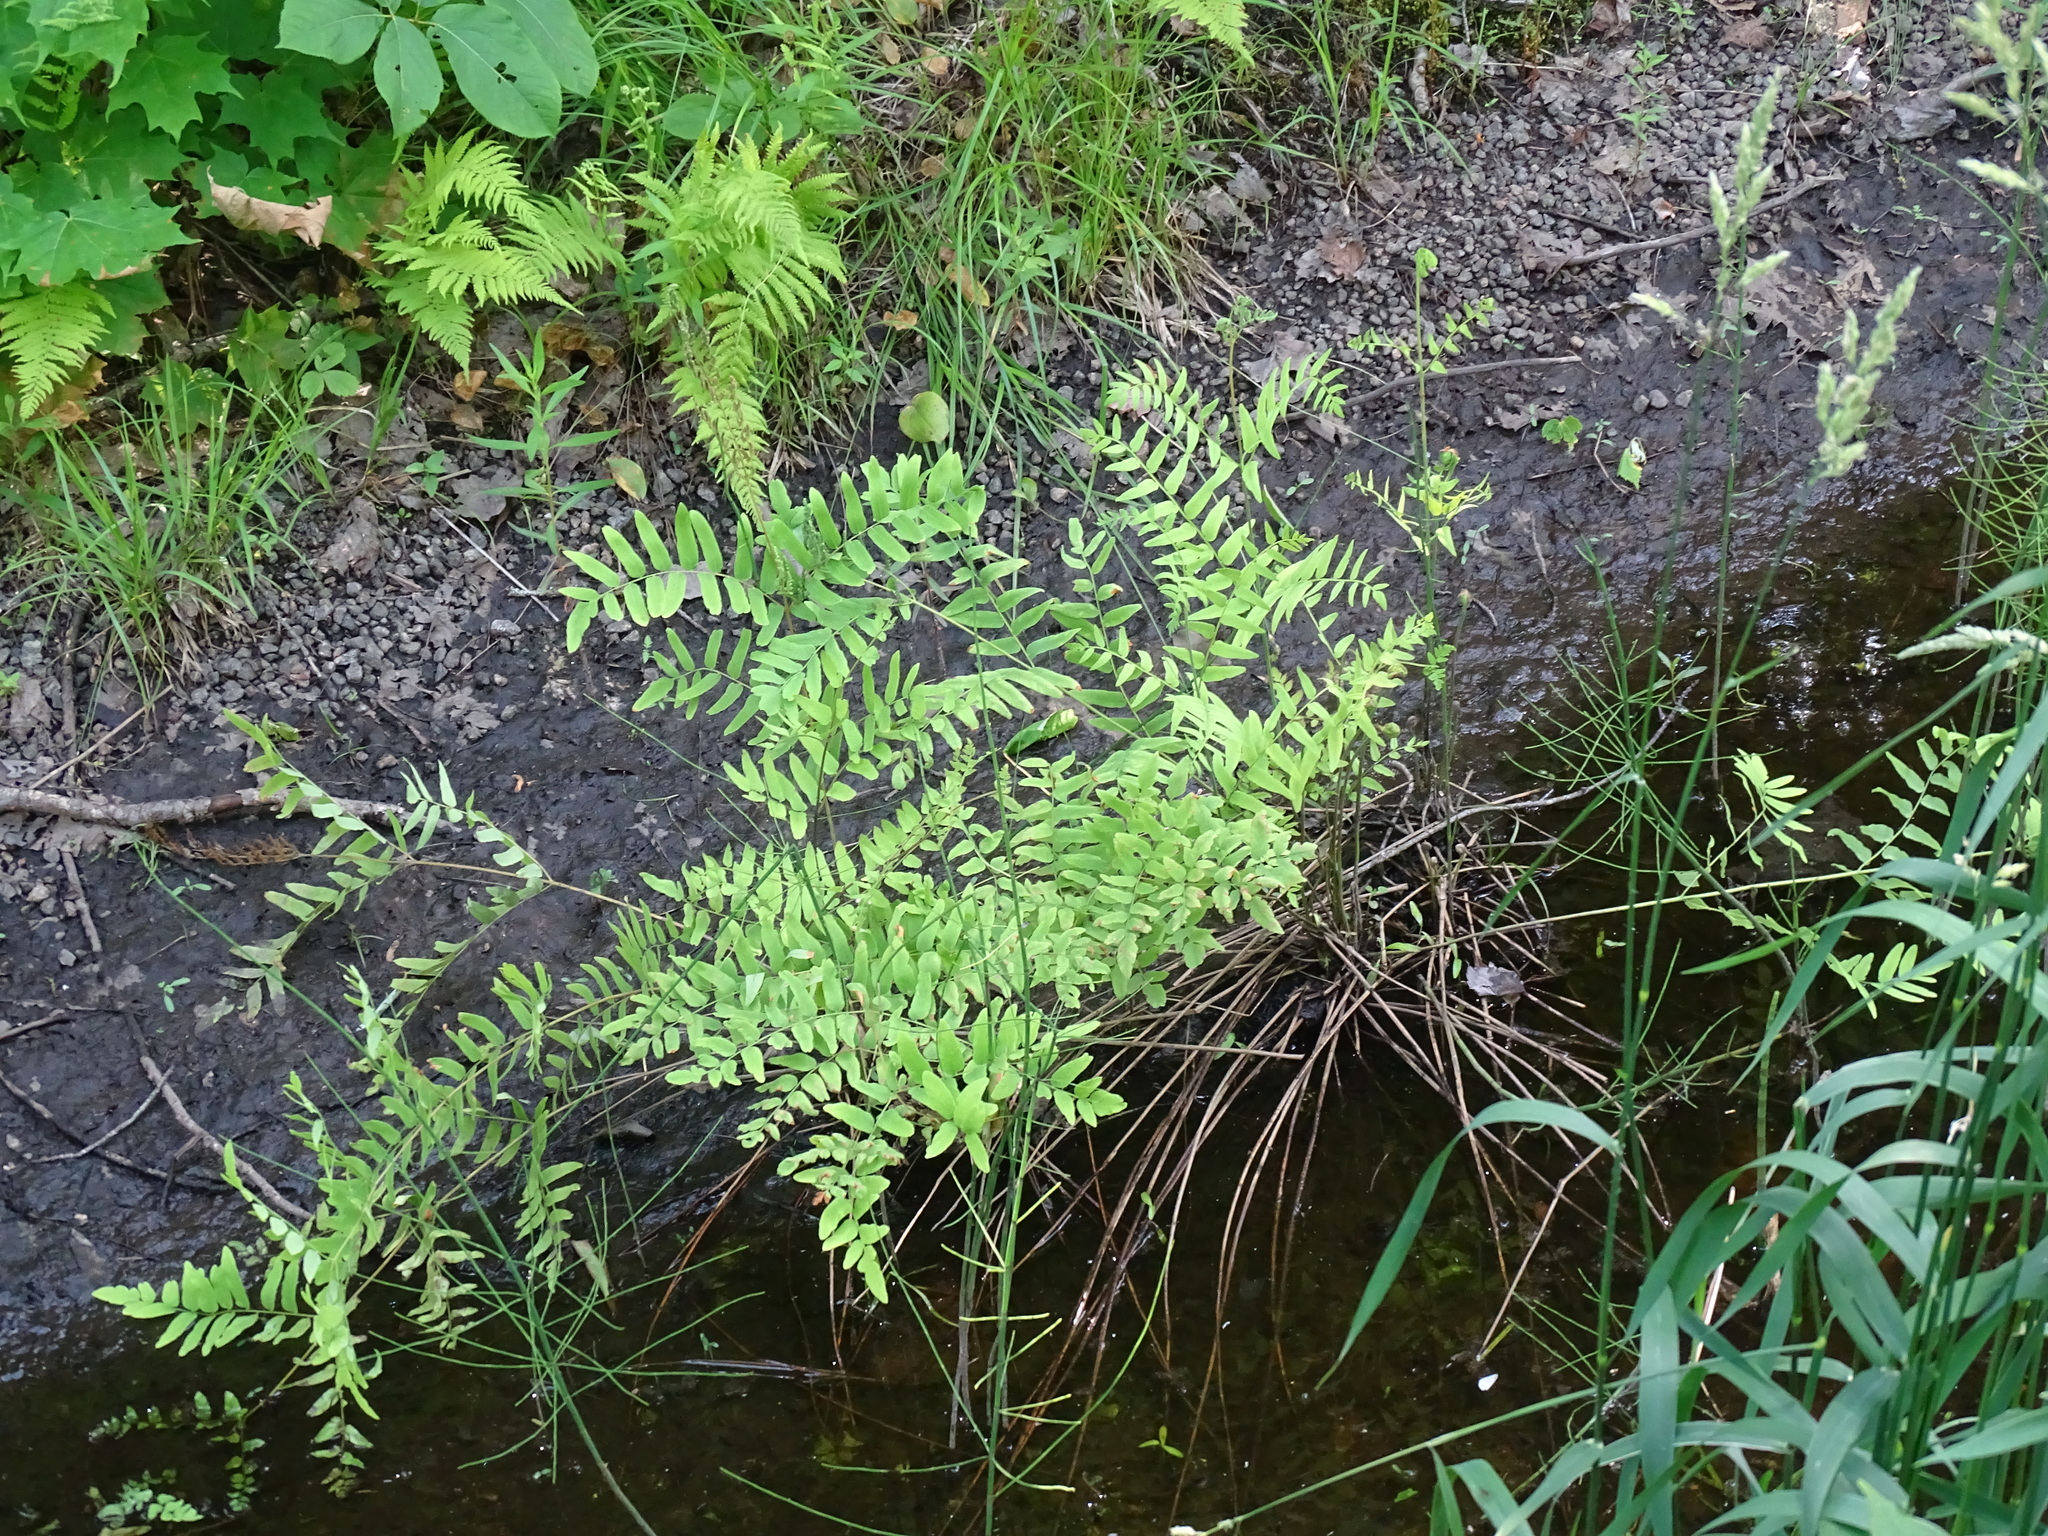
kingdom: Plantae
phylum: Tracheophyta
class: Polypodiopsida
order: Osmundales
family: Osmundaceae
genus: Osmunda
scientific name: Osmunda spectabilis
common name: American royal fern
